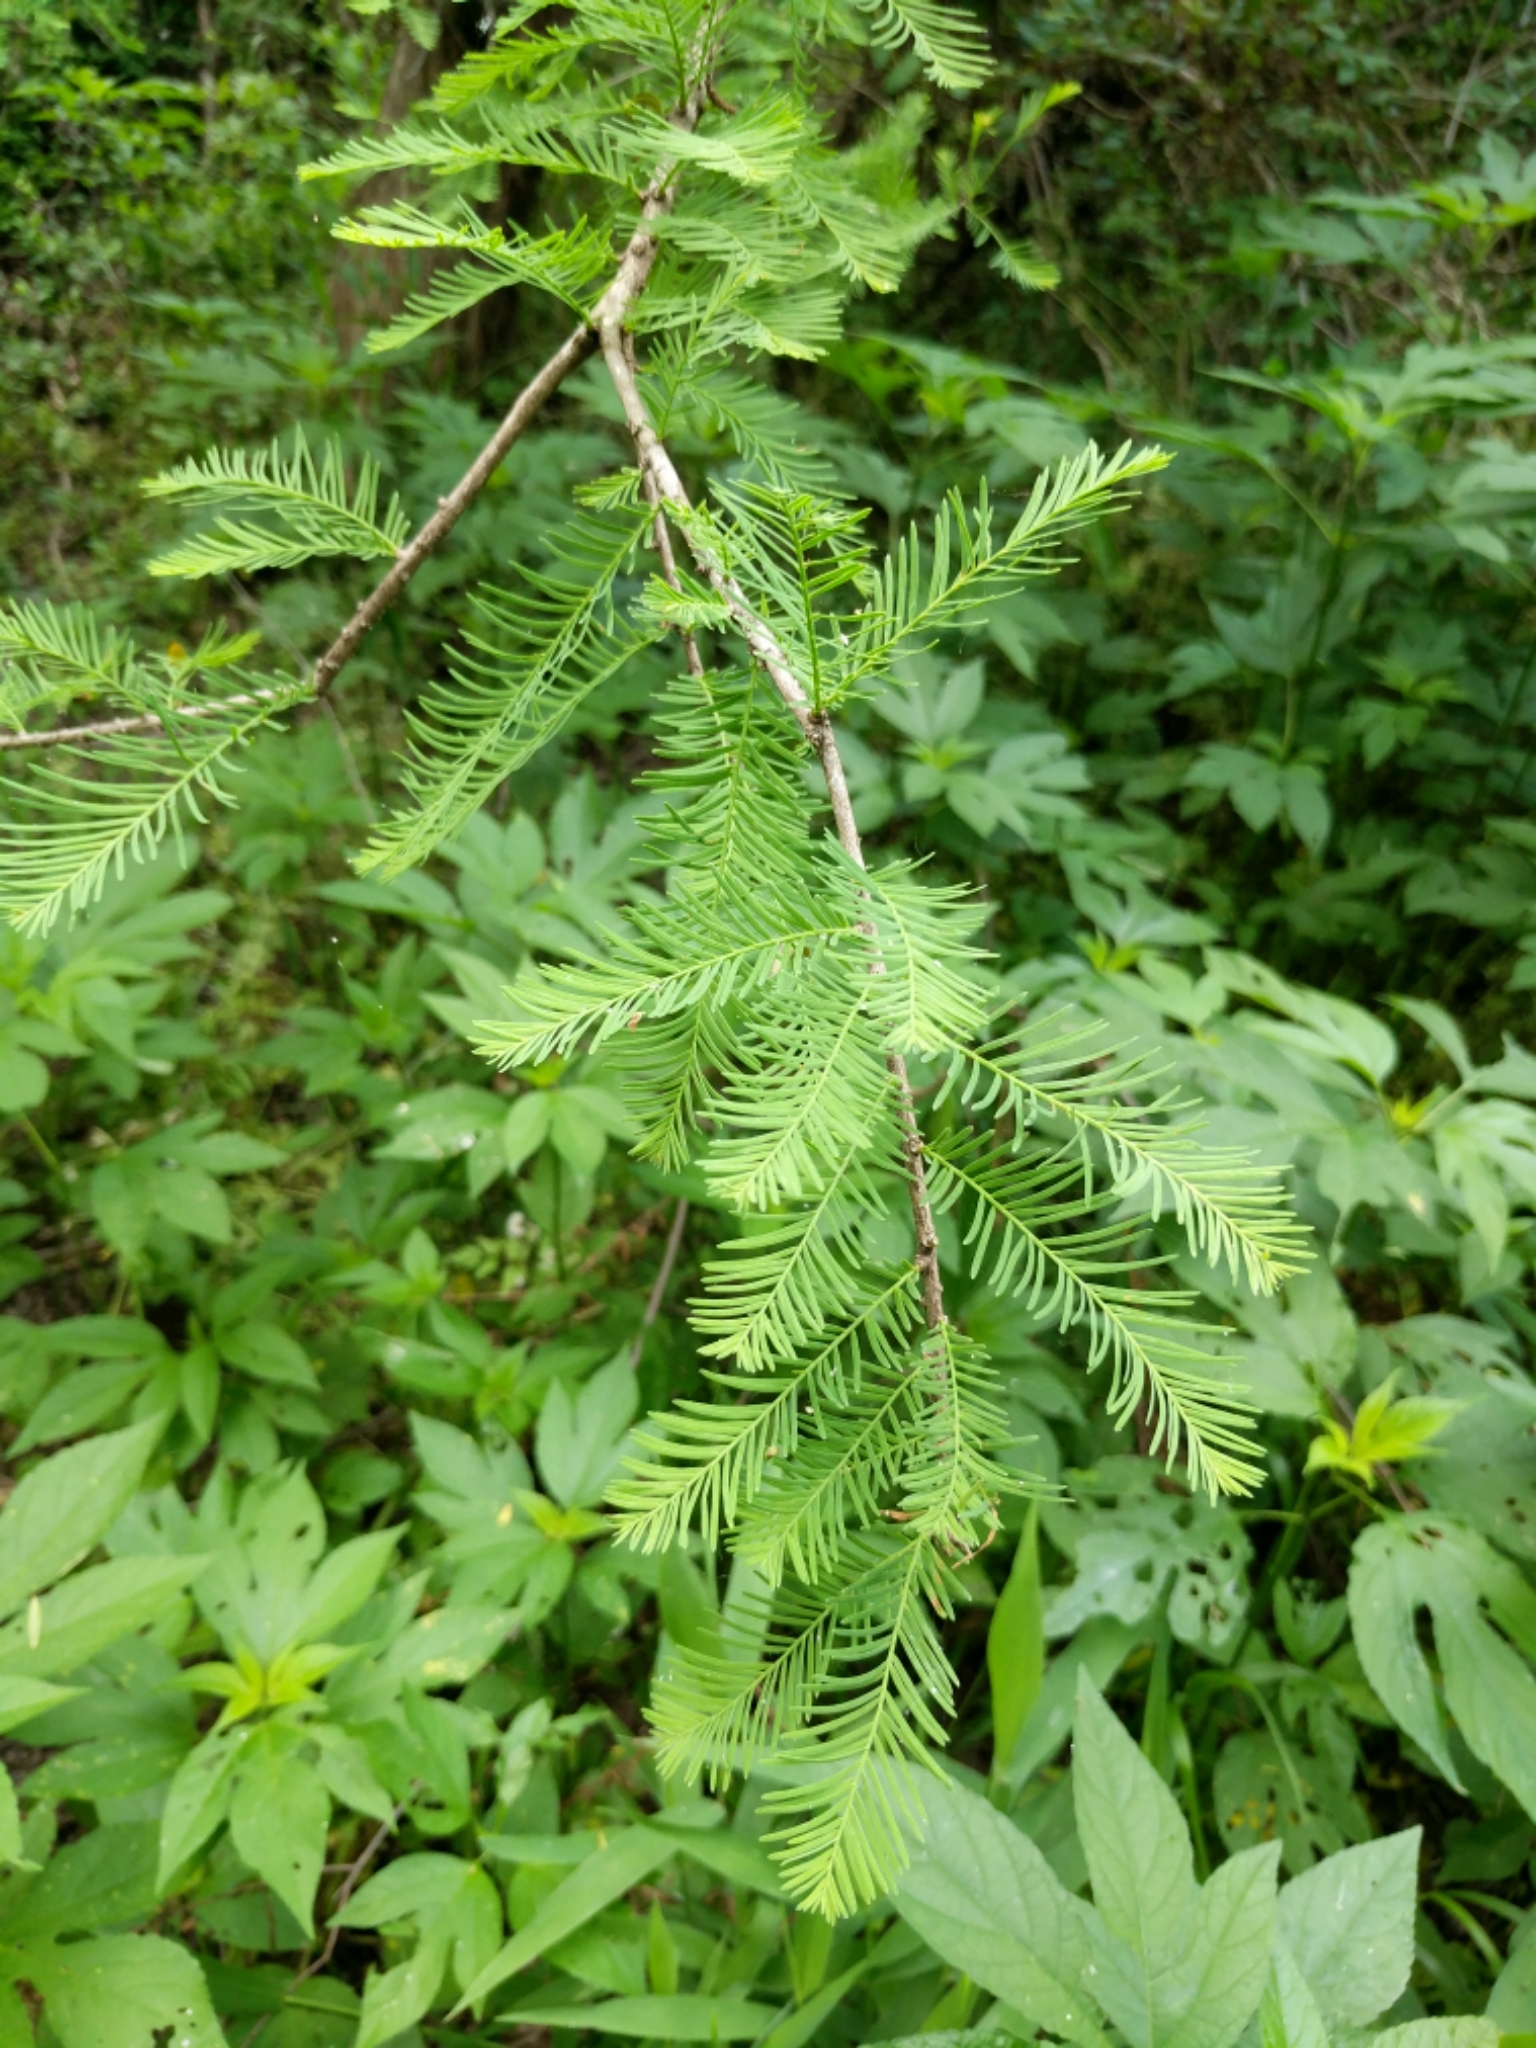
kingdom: Plantae
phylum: Tracheophyta
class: Pinopsida
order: Pinales
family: Cupressaceae
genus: Taxodium
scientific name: Taxodium distichum
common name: Bald cypress
